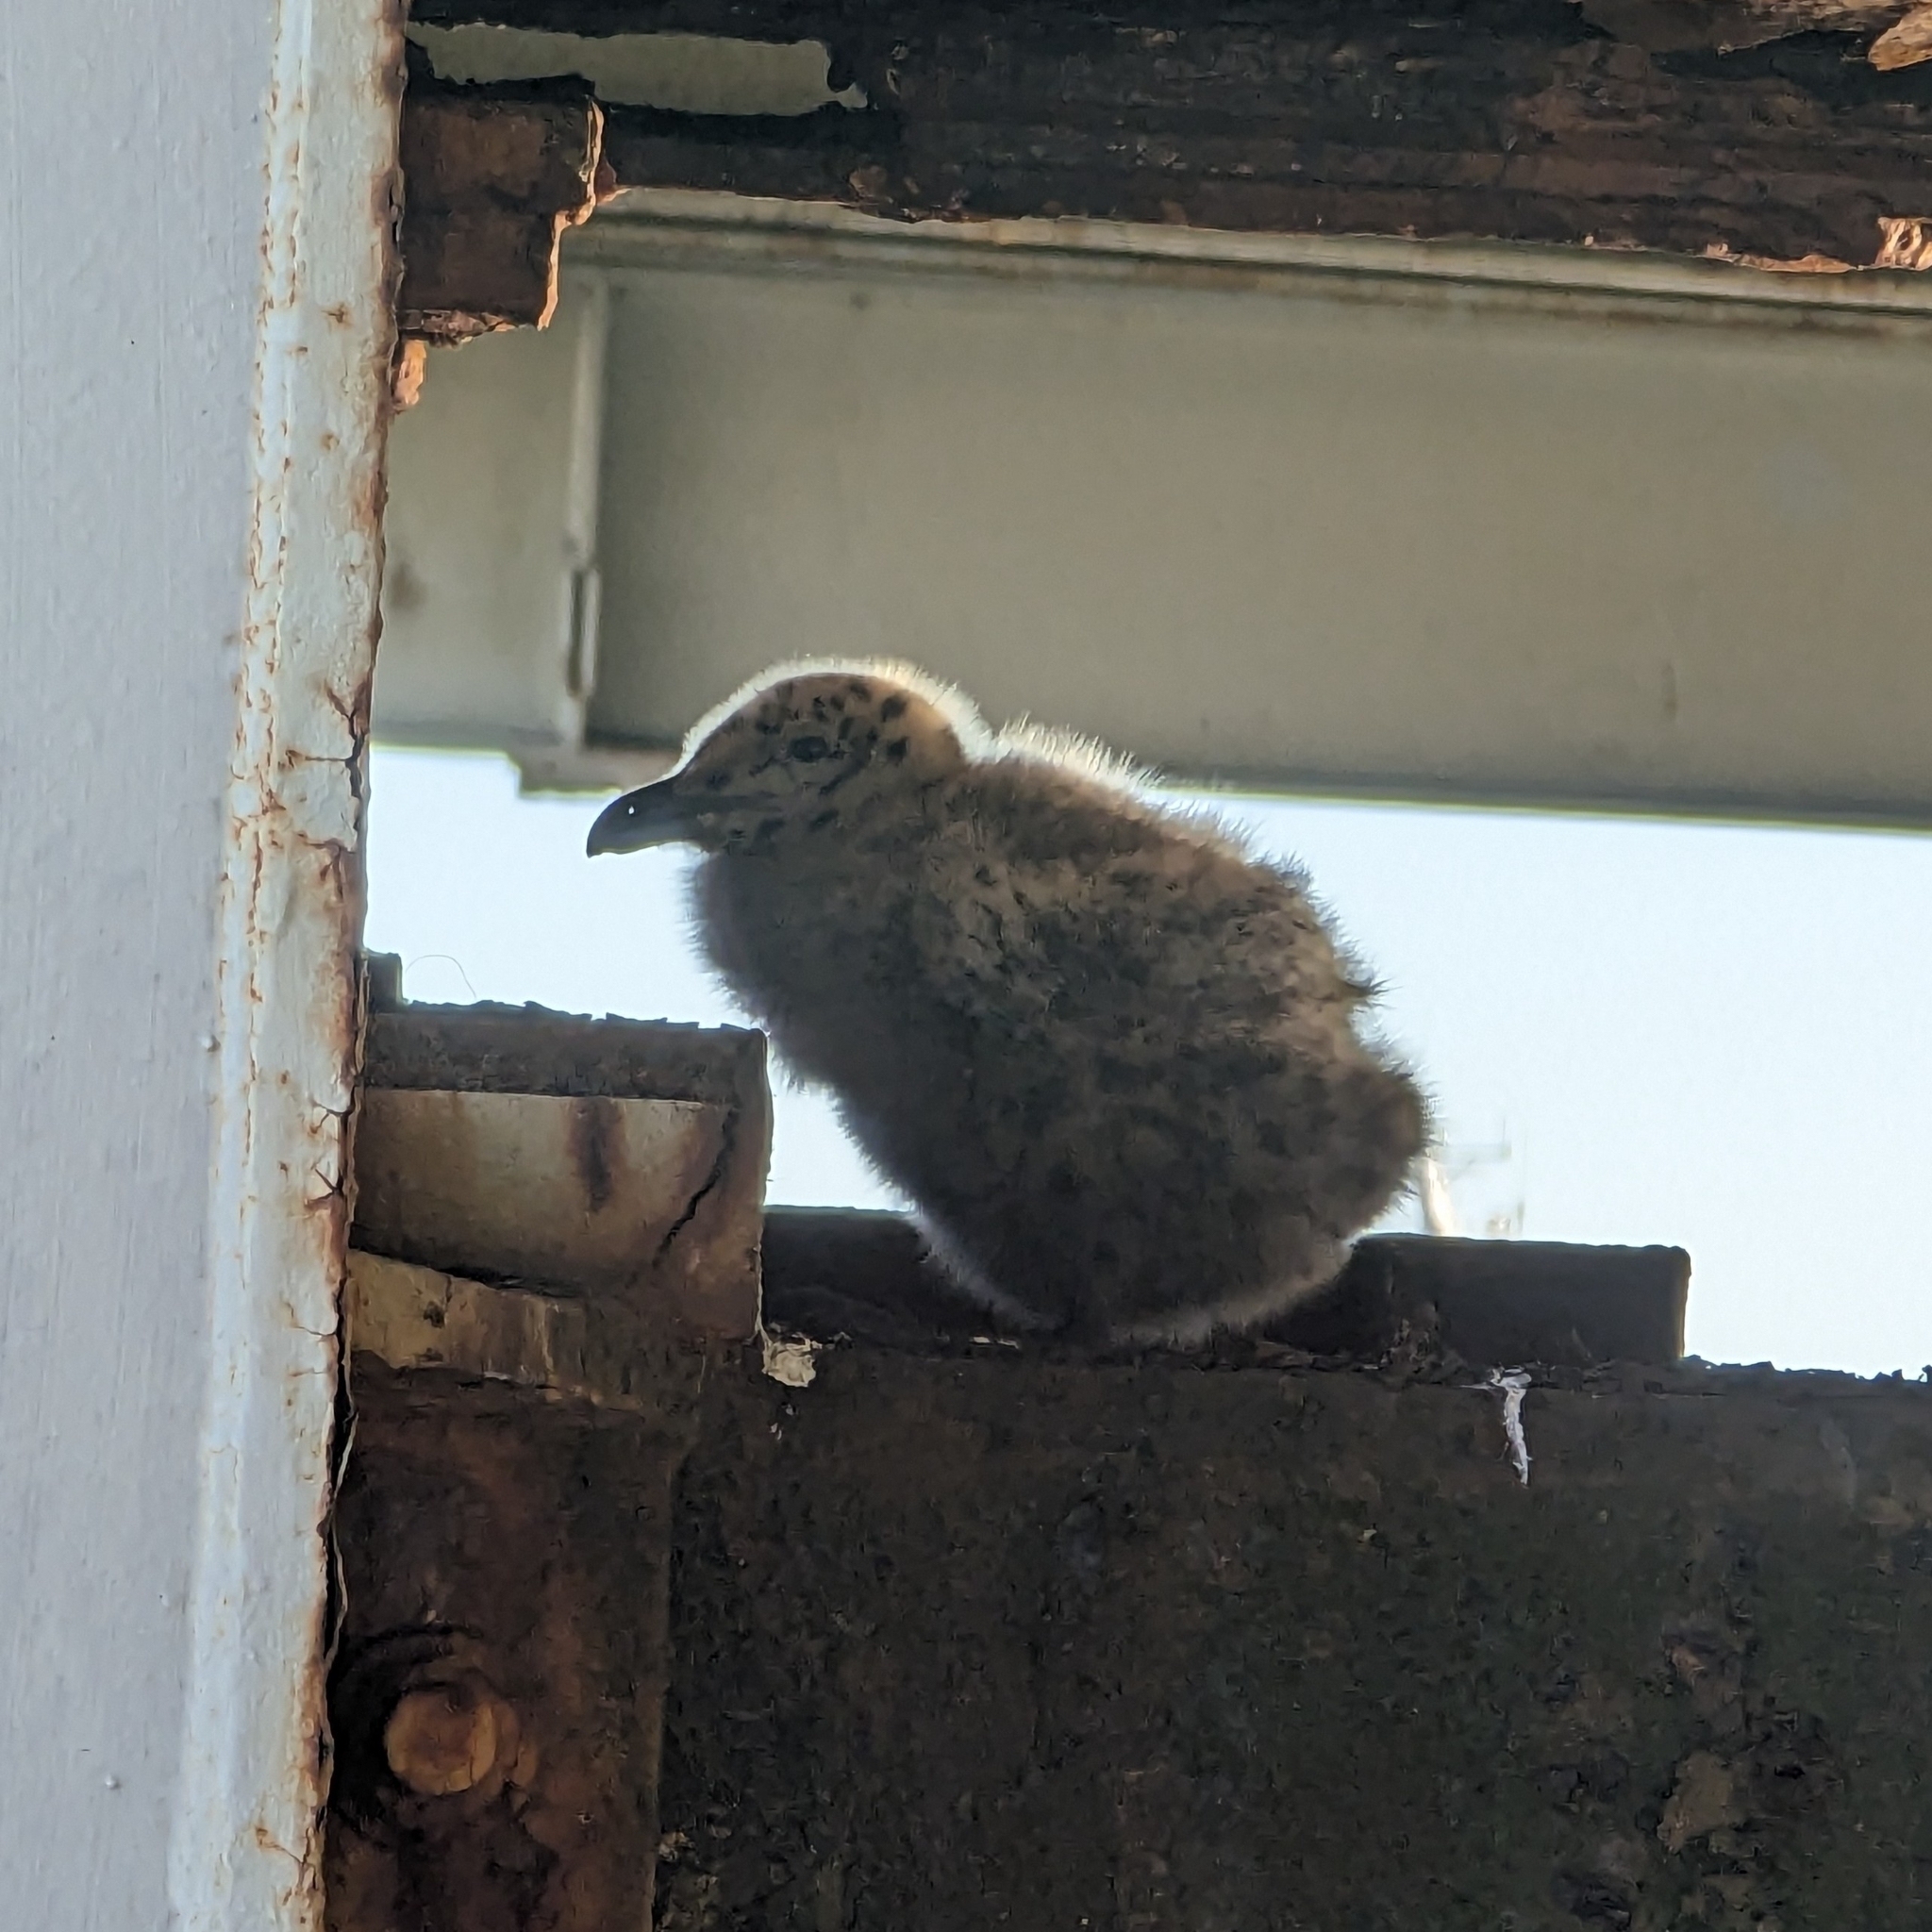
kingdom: Animalia
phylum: Chordata
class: Aves
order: Charadriiformes
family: Laridae
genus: Larus
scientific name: Larus
